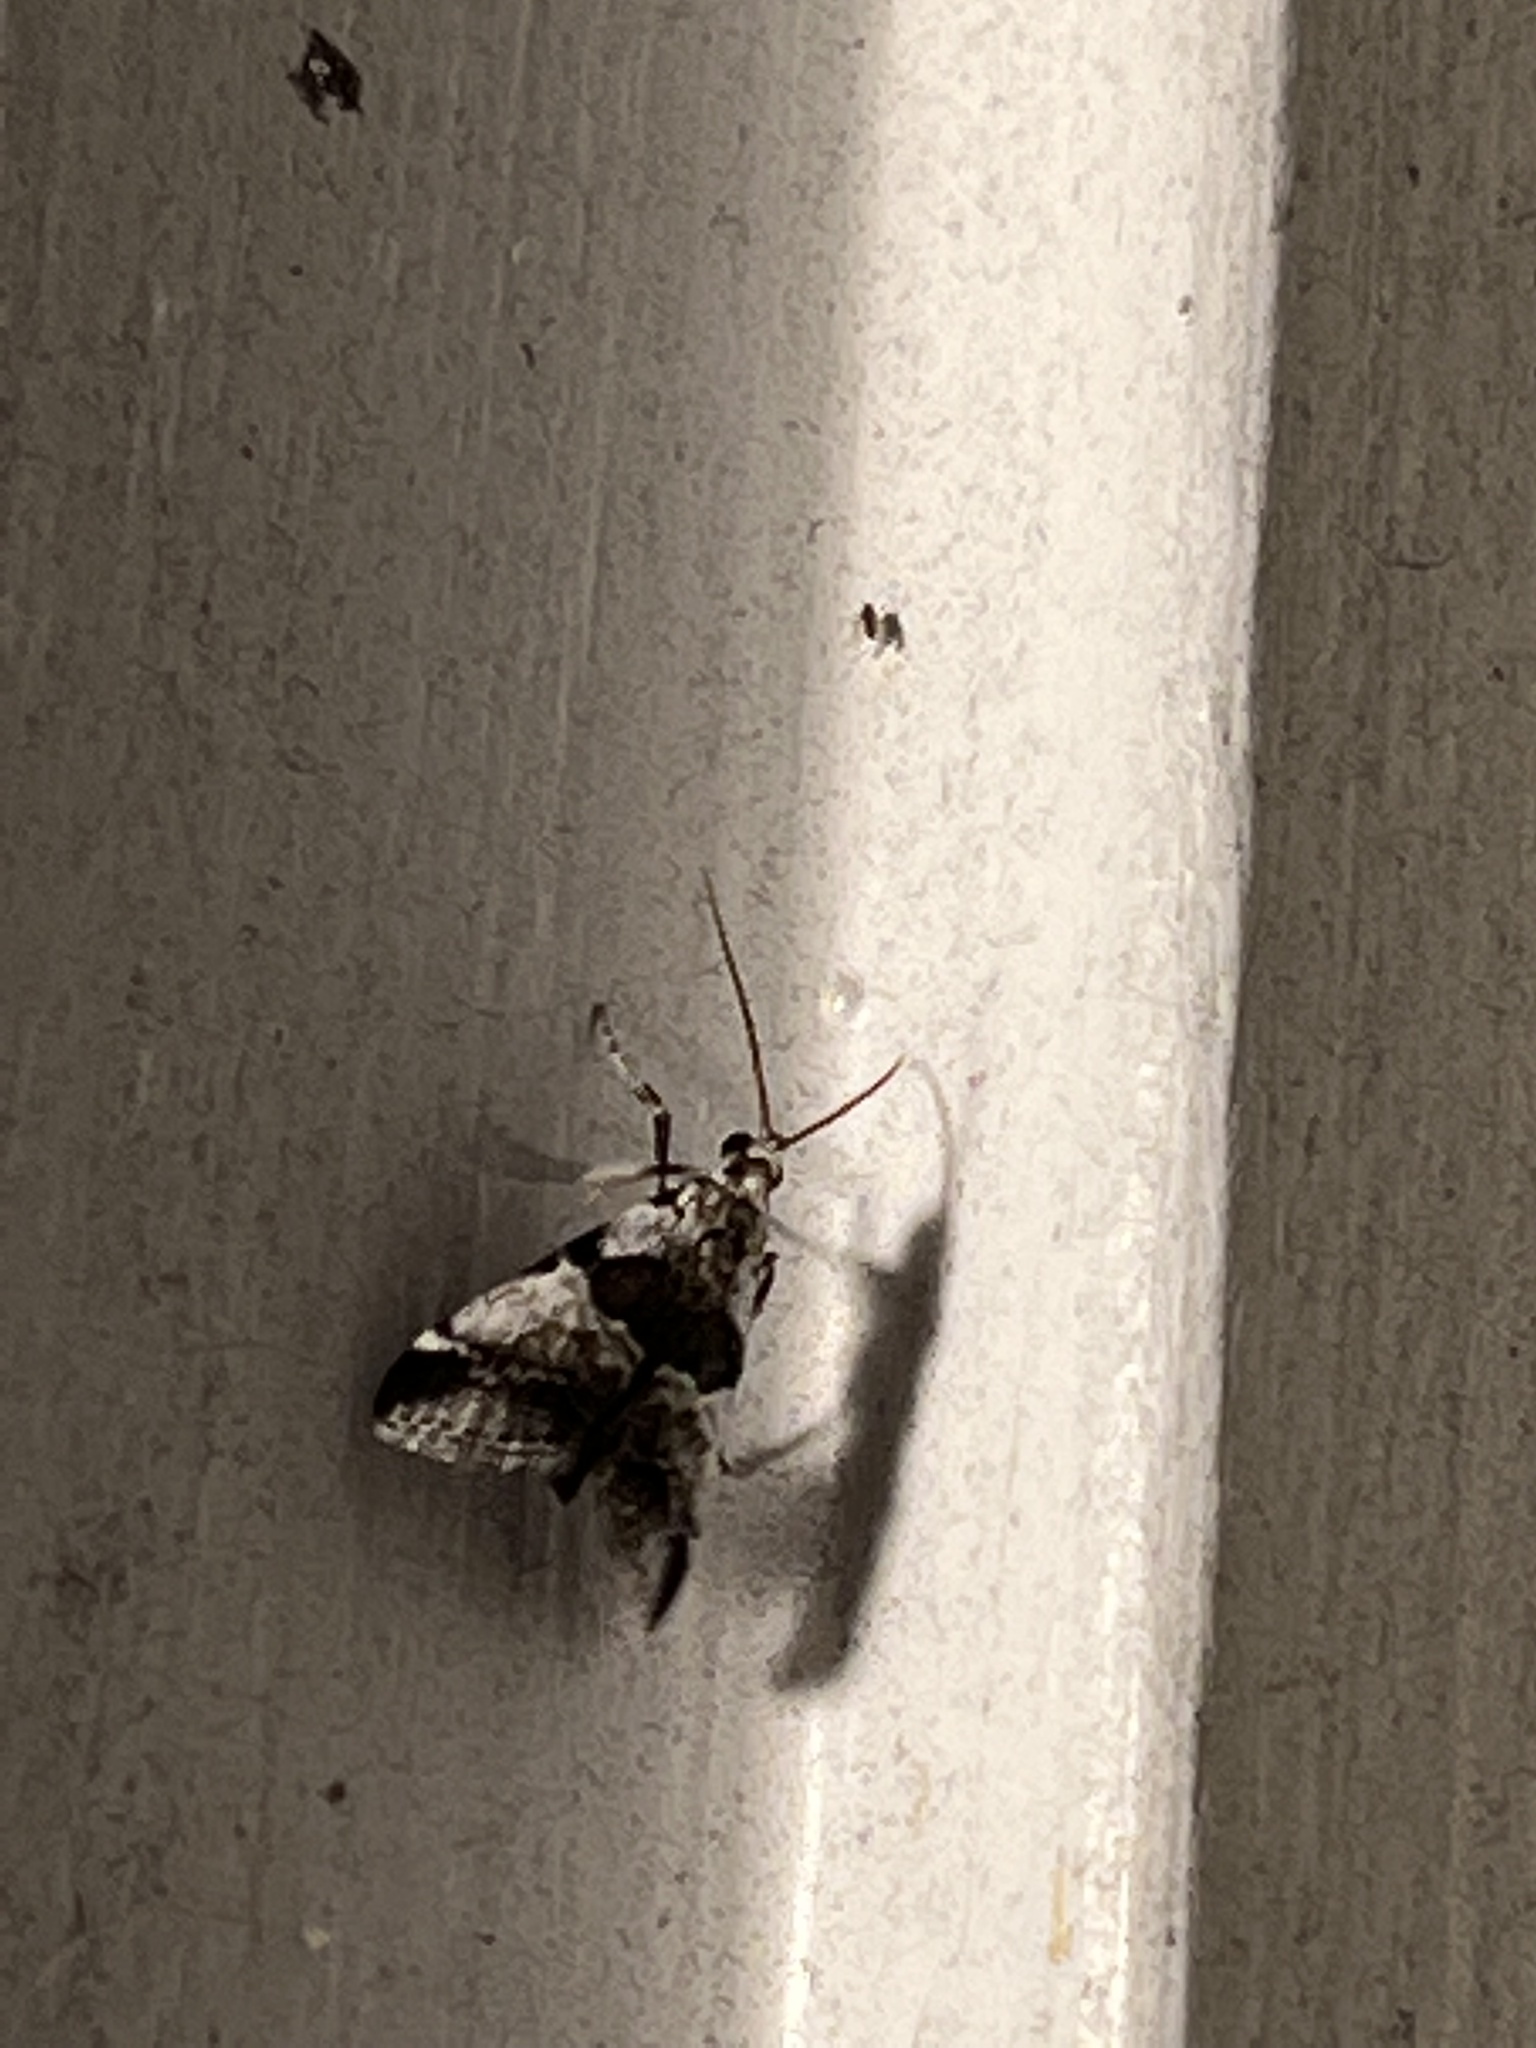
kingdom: Animalia
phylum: Arthropoda
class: Insecta
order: Lepidoptera
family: Pyralidae
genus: Tallula
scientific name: Tallula atrifascialis
